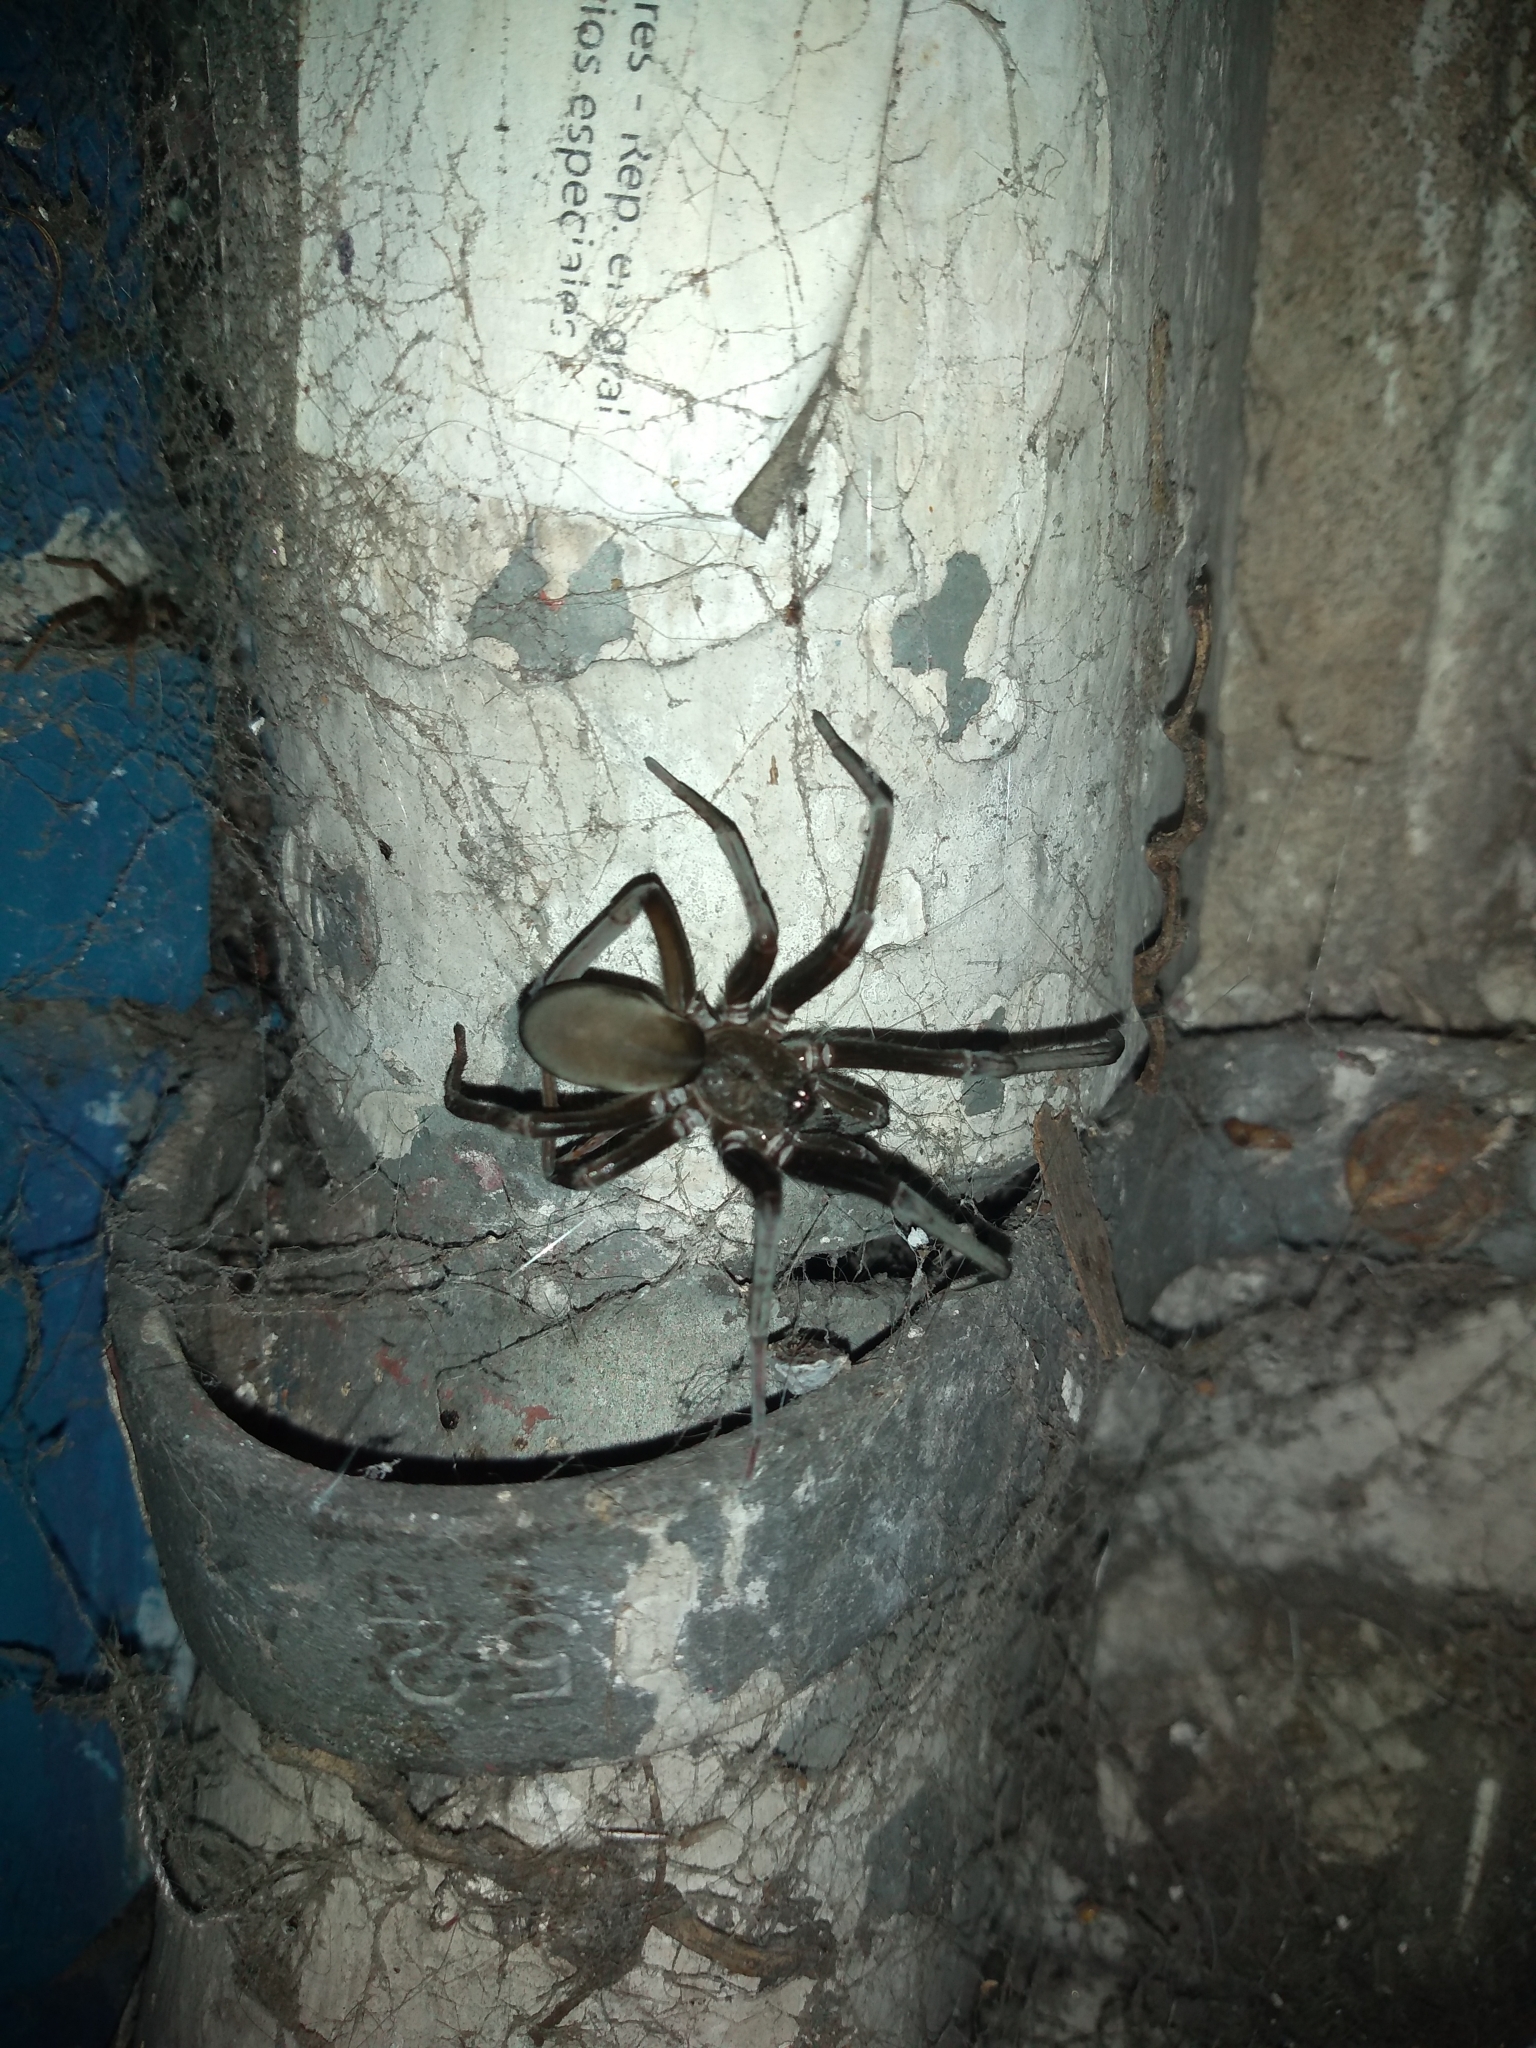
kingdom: Animalia
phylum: Arthropoda
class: Arachnida
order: Araneae
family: Filistatidae
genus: Kukulcania
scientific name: Kukulcania hibernalis
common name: Crevice weaver
